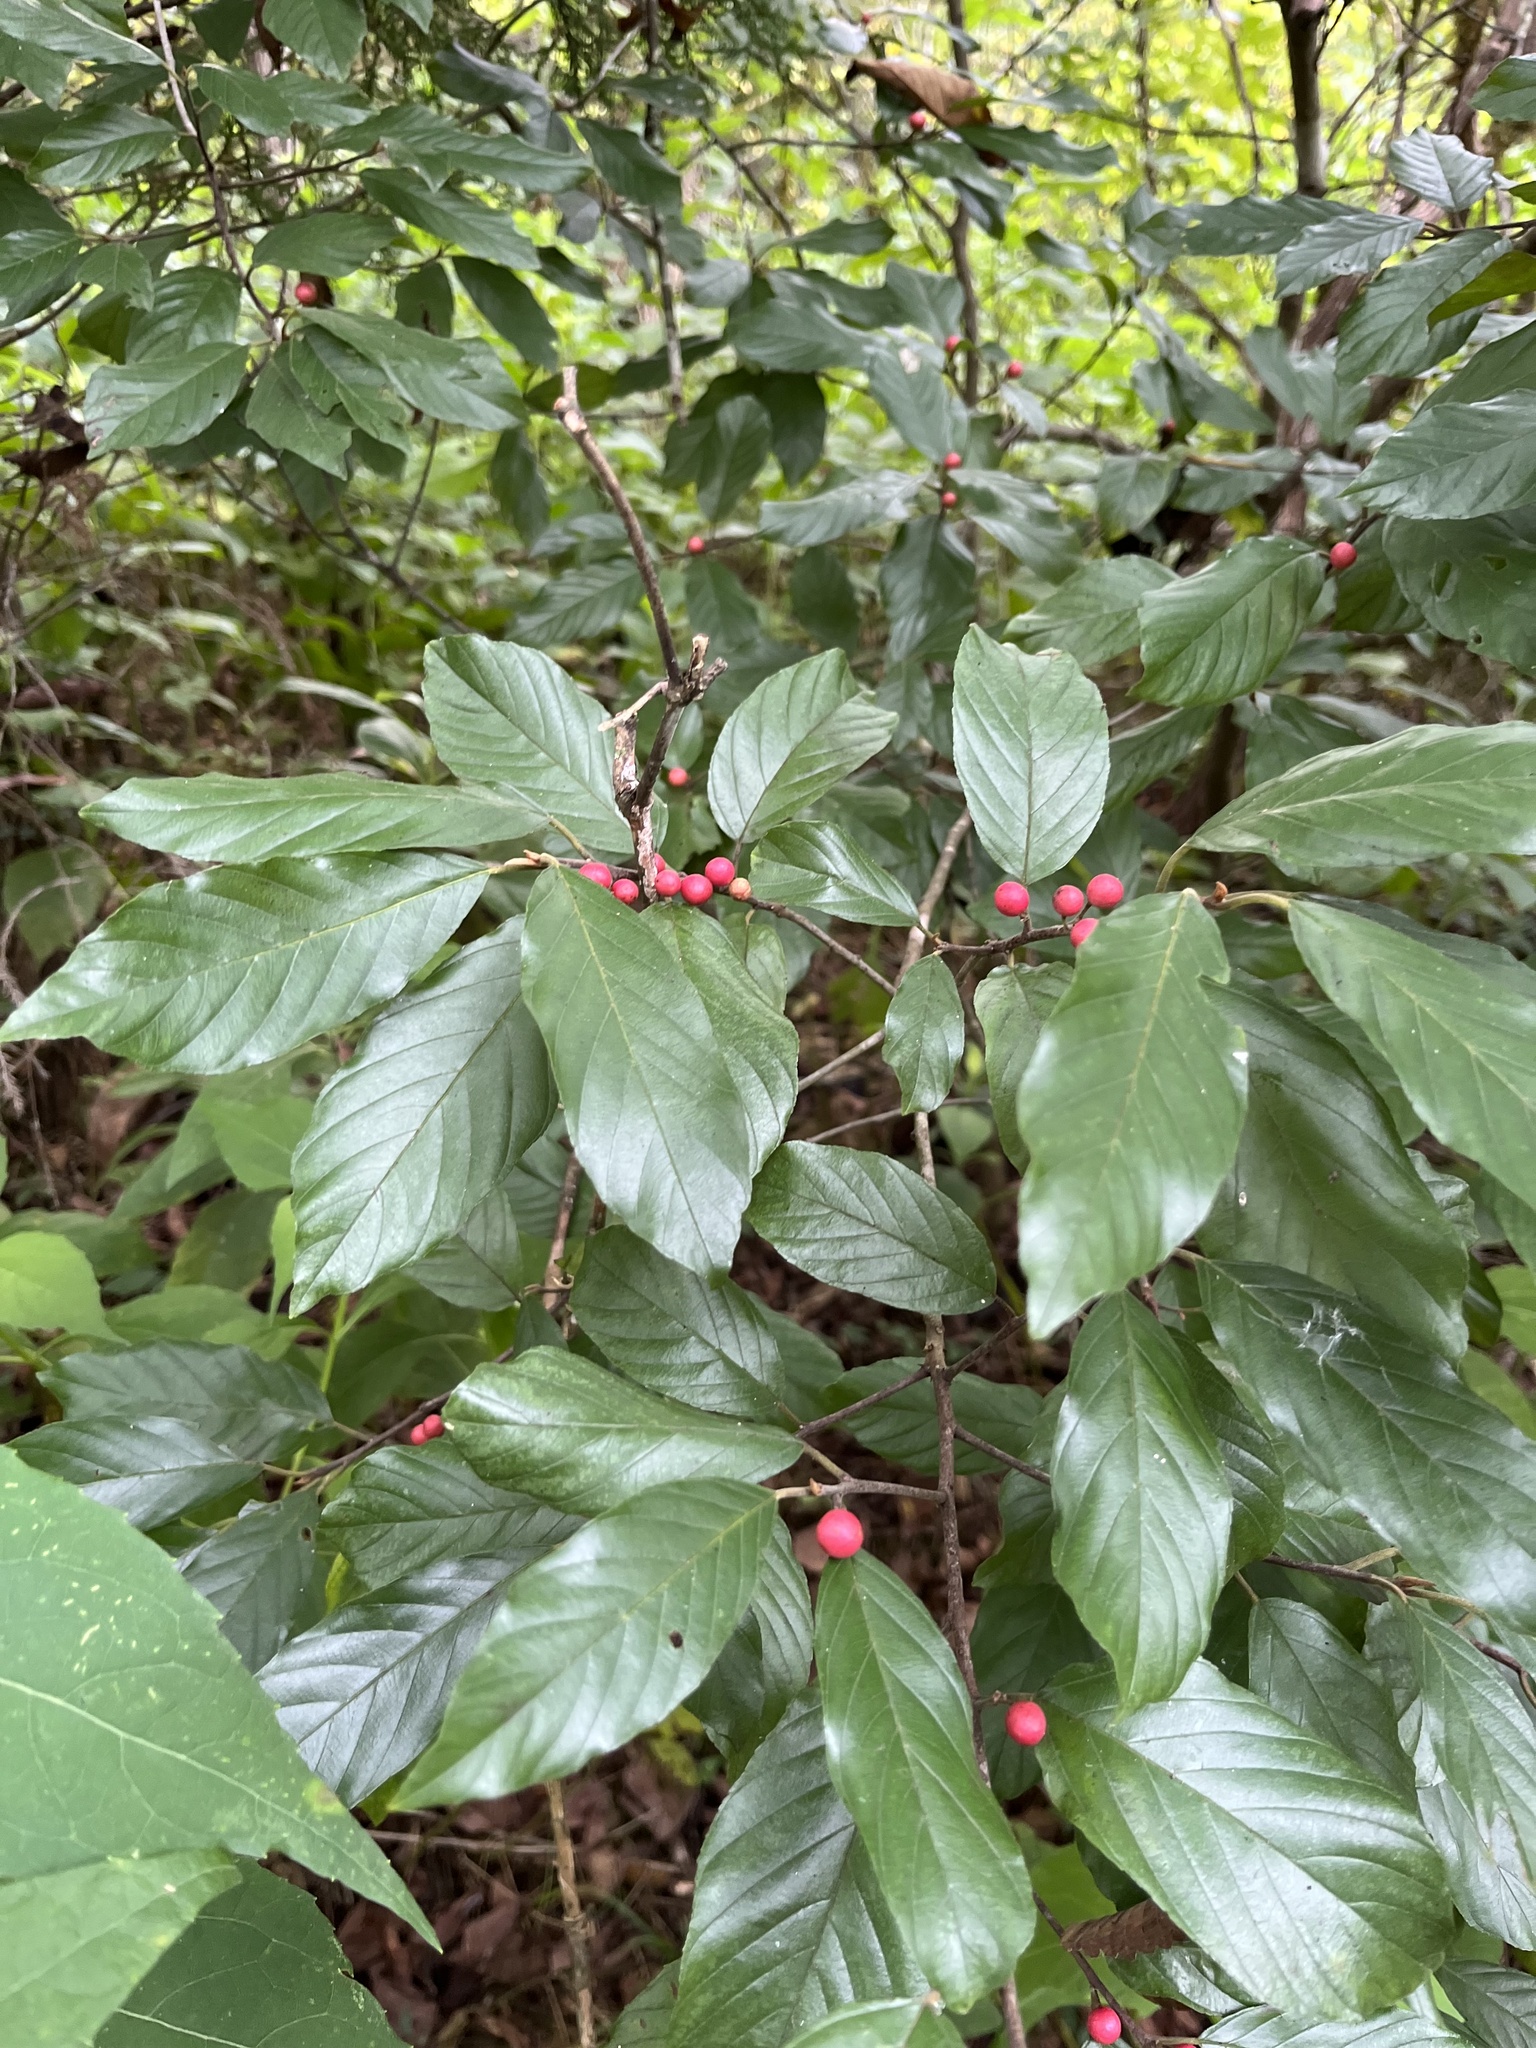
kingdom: Plantae
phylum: Tracheophyta
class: Magnoliopsida
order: Rosales
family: Rhamnaceae
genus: Frangula
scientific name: Frangula caroliniana
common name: Carolina buckthorn
